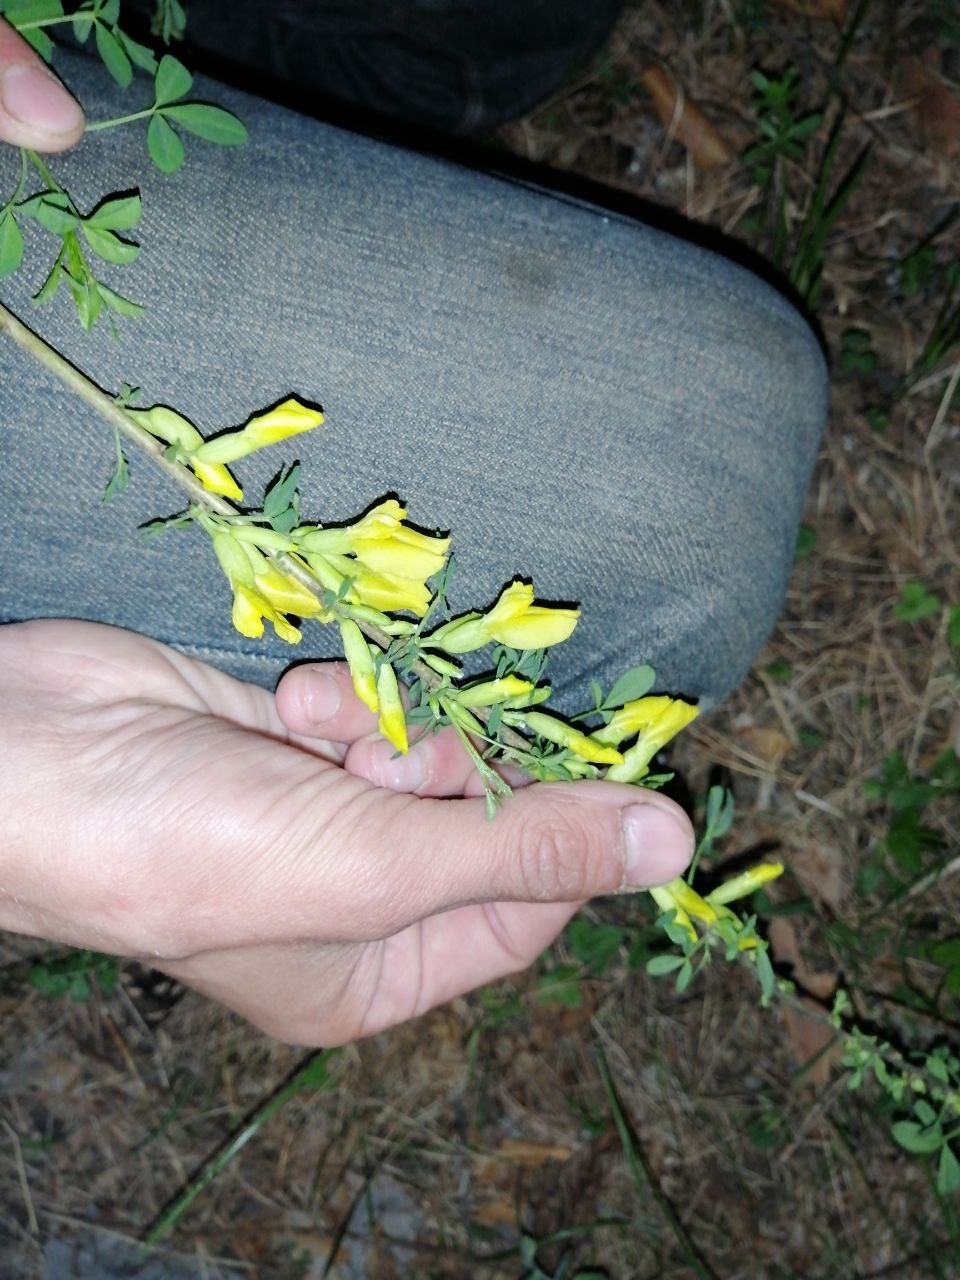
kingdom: Plantae
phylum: Tracheophyta
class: Magnoliopsida
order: Fabales
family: Fabaceae
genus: Chamaecytisus
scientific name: Chamaecytisus ruthenicus
